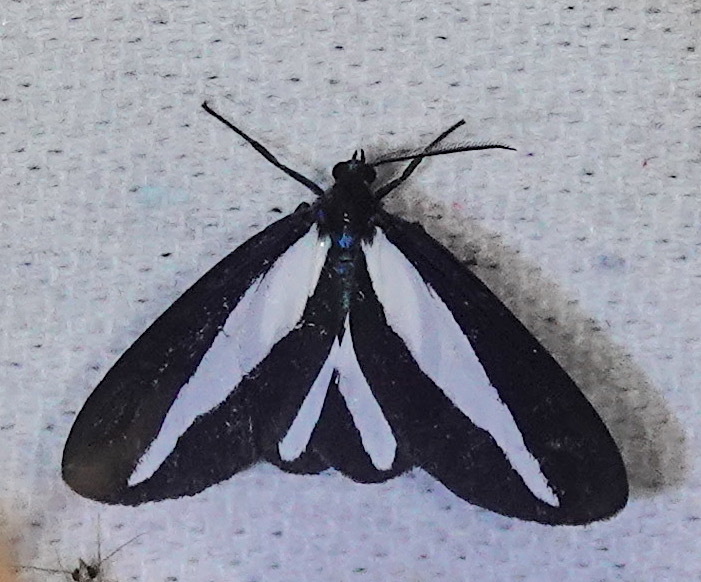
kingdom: Animalia
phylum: Arthropoda
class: Insecta
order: Lepidoptera
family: Erebidae
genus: Crocomela
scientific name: Crocomela albolineata
